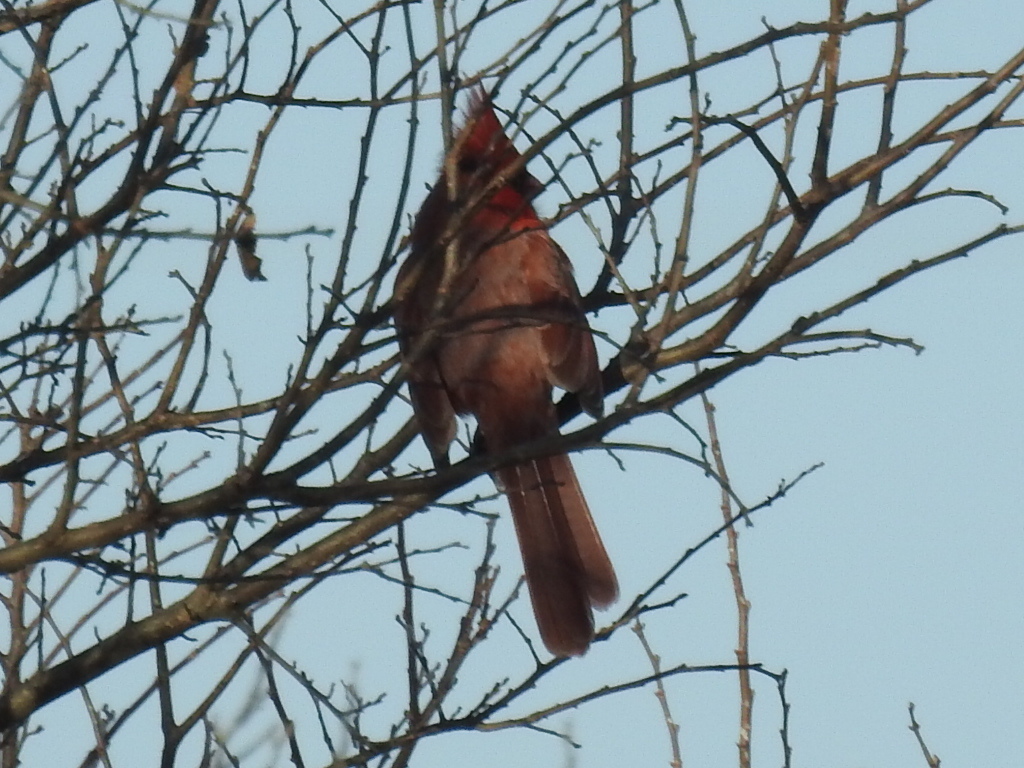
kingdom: Animalia
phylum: Chordata
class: Aves
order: Passeriformes
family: Cardinalidae
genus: Cardinalis
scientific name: Cardinalis cardinalis
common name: Northern cardinal
